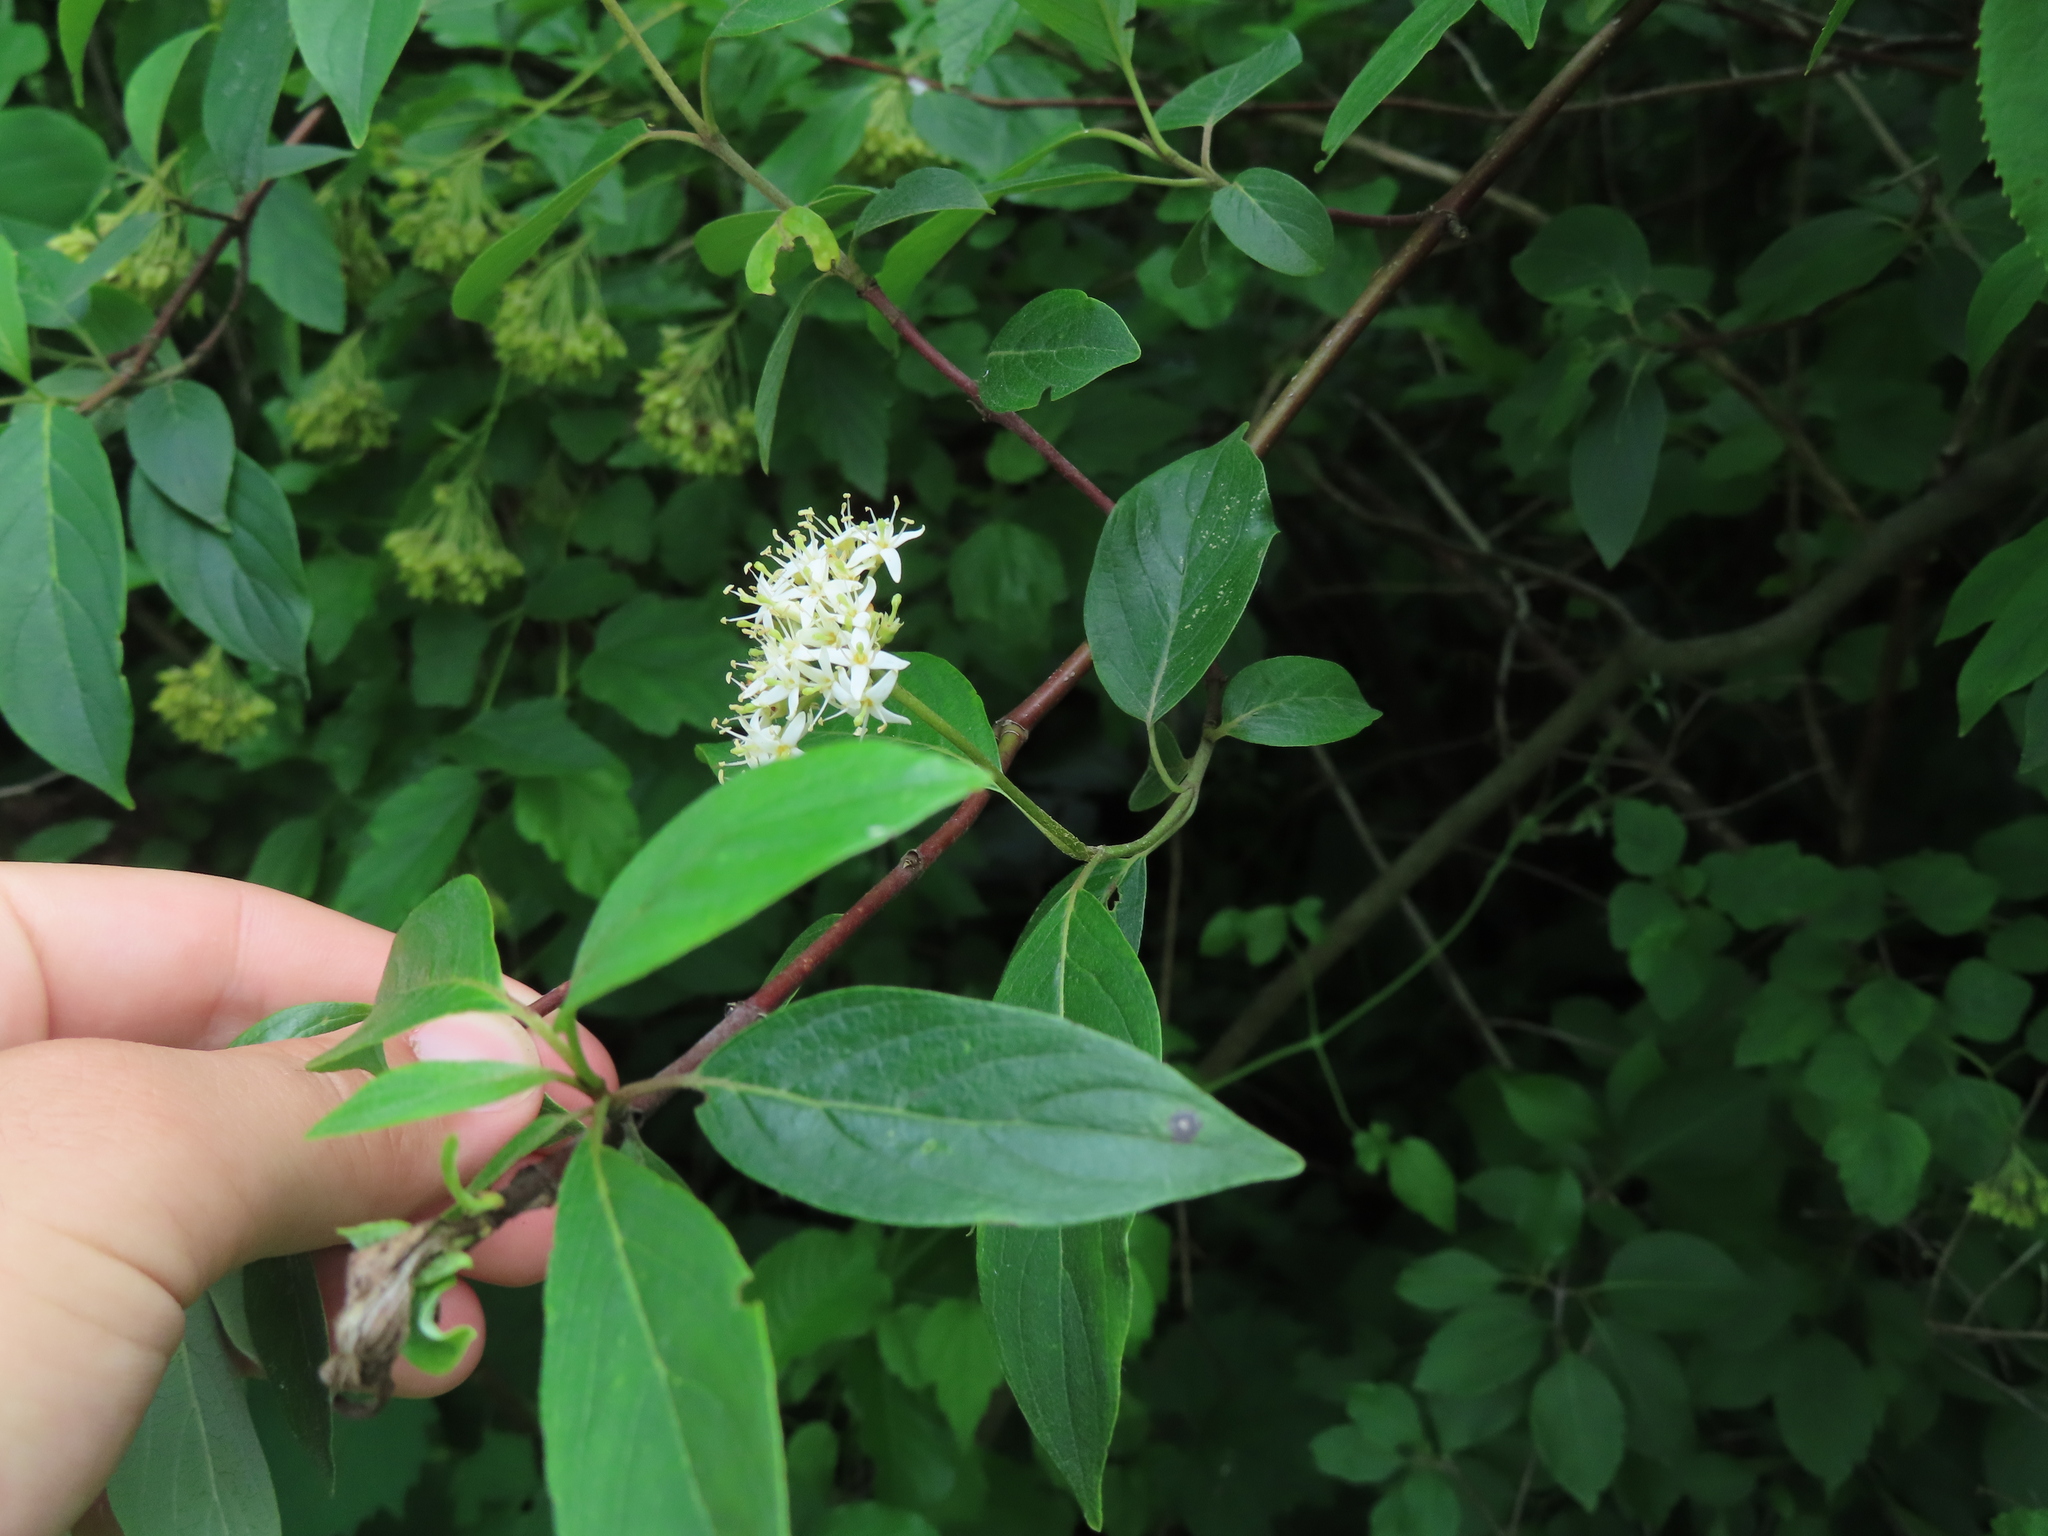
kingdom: Plantae
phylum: Tracheophyta
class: Magnoliopsida
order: Cornales
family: Cornaceae
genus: Cornus
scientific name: Cornus amomum
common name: Silky dogwood
